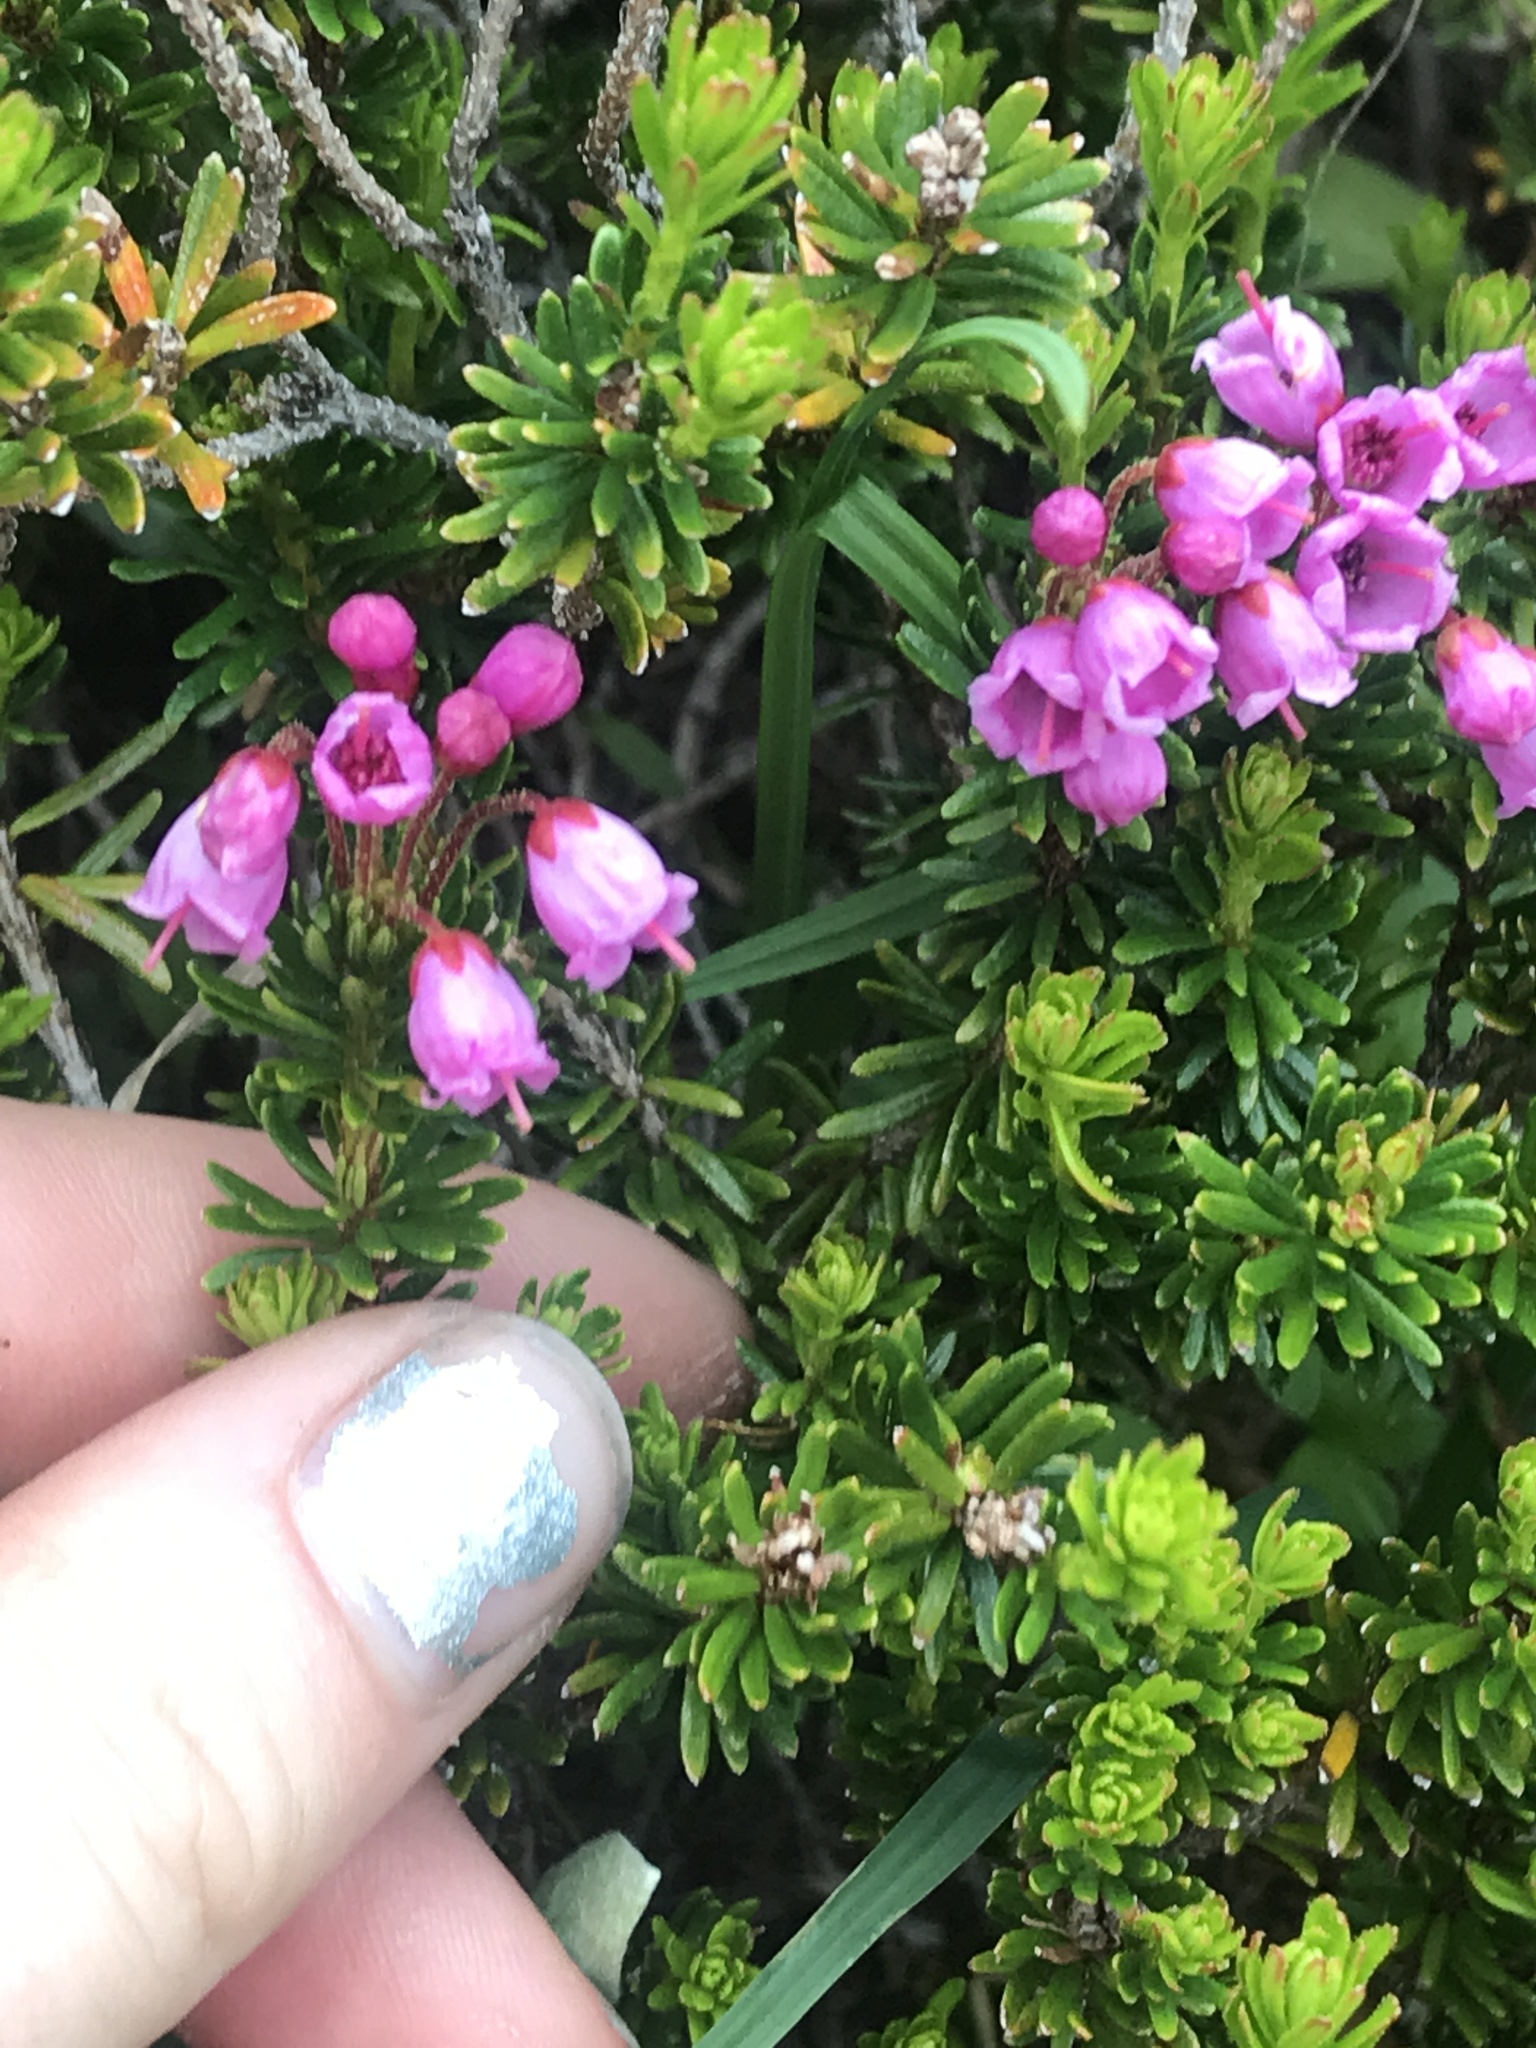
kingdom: Plantae
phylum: Tracheophyta
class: Magnoliopsida
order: Ericales
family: Ericaceae
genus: Phyllodoce
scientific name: Phyllodoce empetriformis
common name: Pink mountain heather
